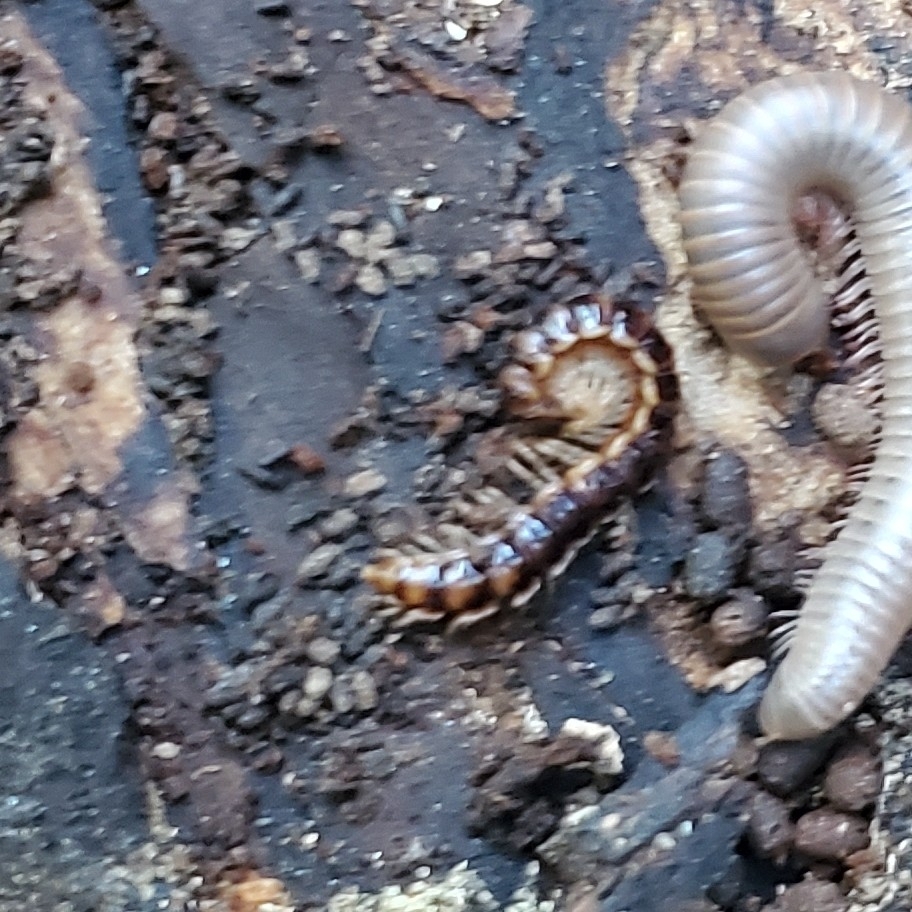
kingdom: Animalia
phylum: Arthropoda
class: Diplopoda
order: Polydesmida
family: Paradoxosomatidae
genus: Oxidus
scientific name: Oxidus gracilis
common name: Greenhouse millipede
